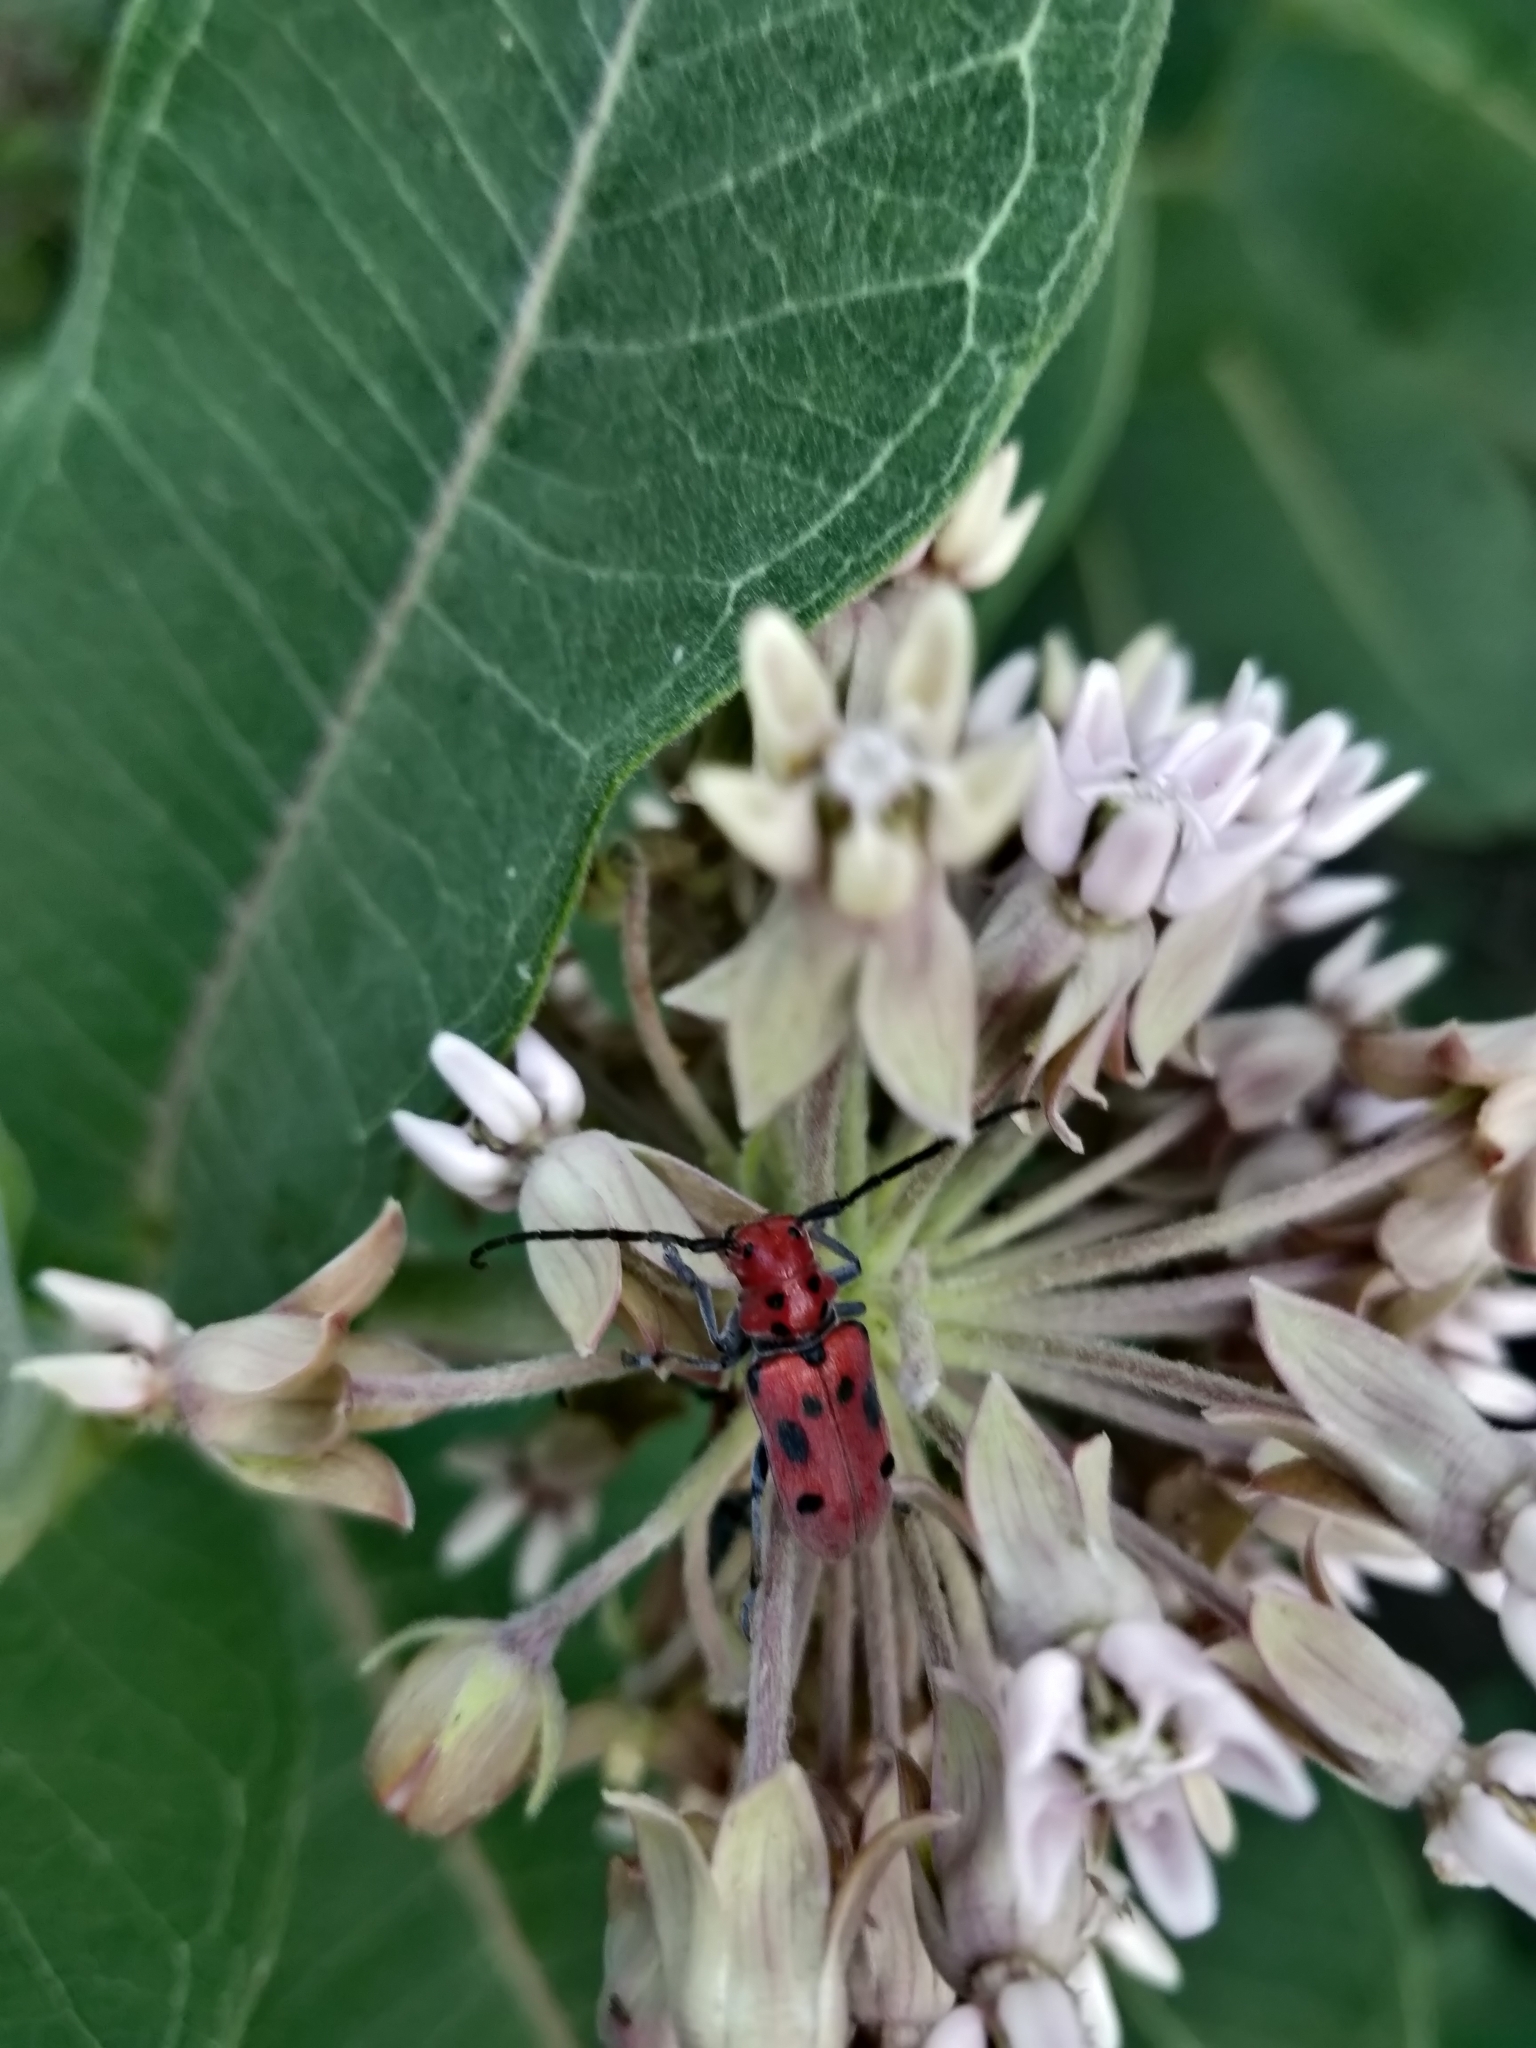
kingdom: Animalia
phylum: Arthropoda
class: Insecta
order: Coleoptera
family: Cerambycidae
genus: Tetraopes
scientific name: Tetraopes tetrophthalmus
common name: Red milkweed beetle
